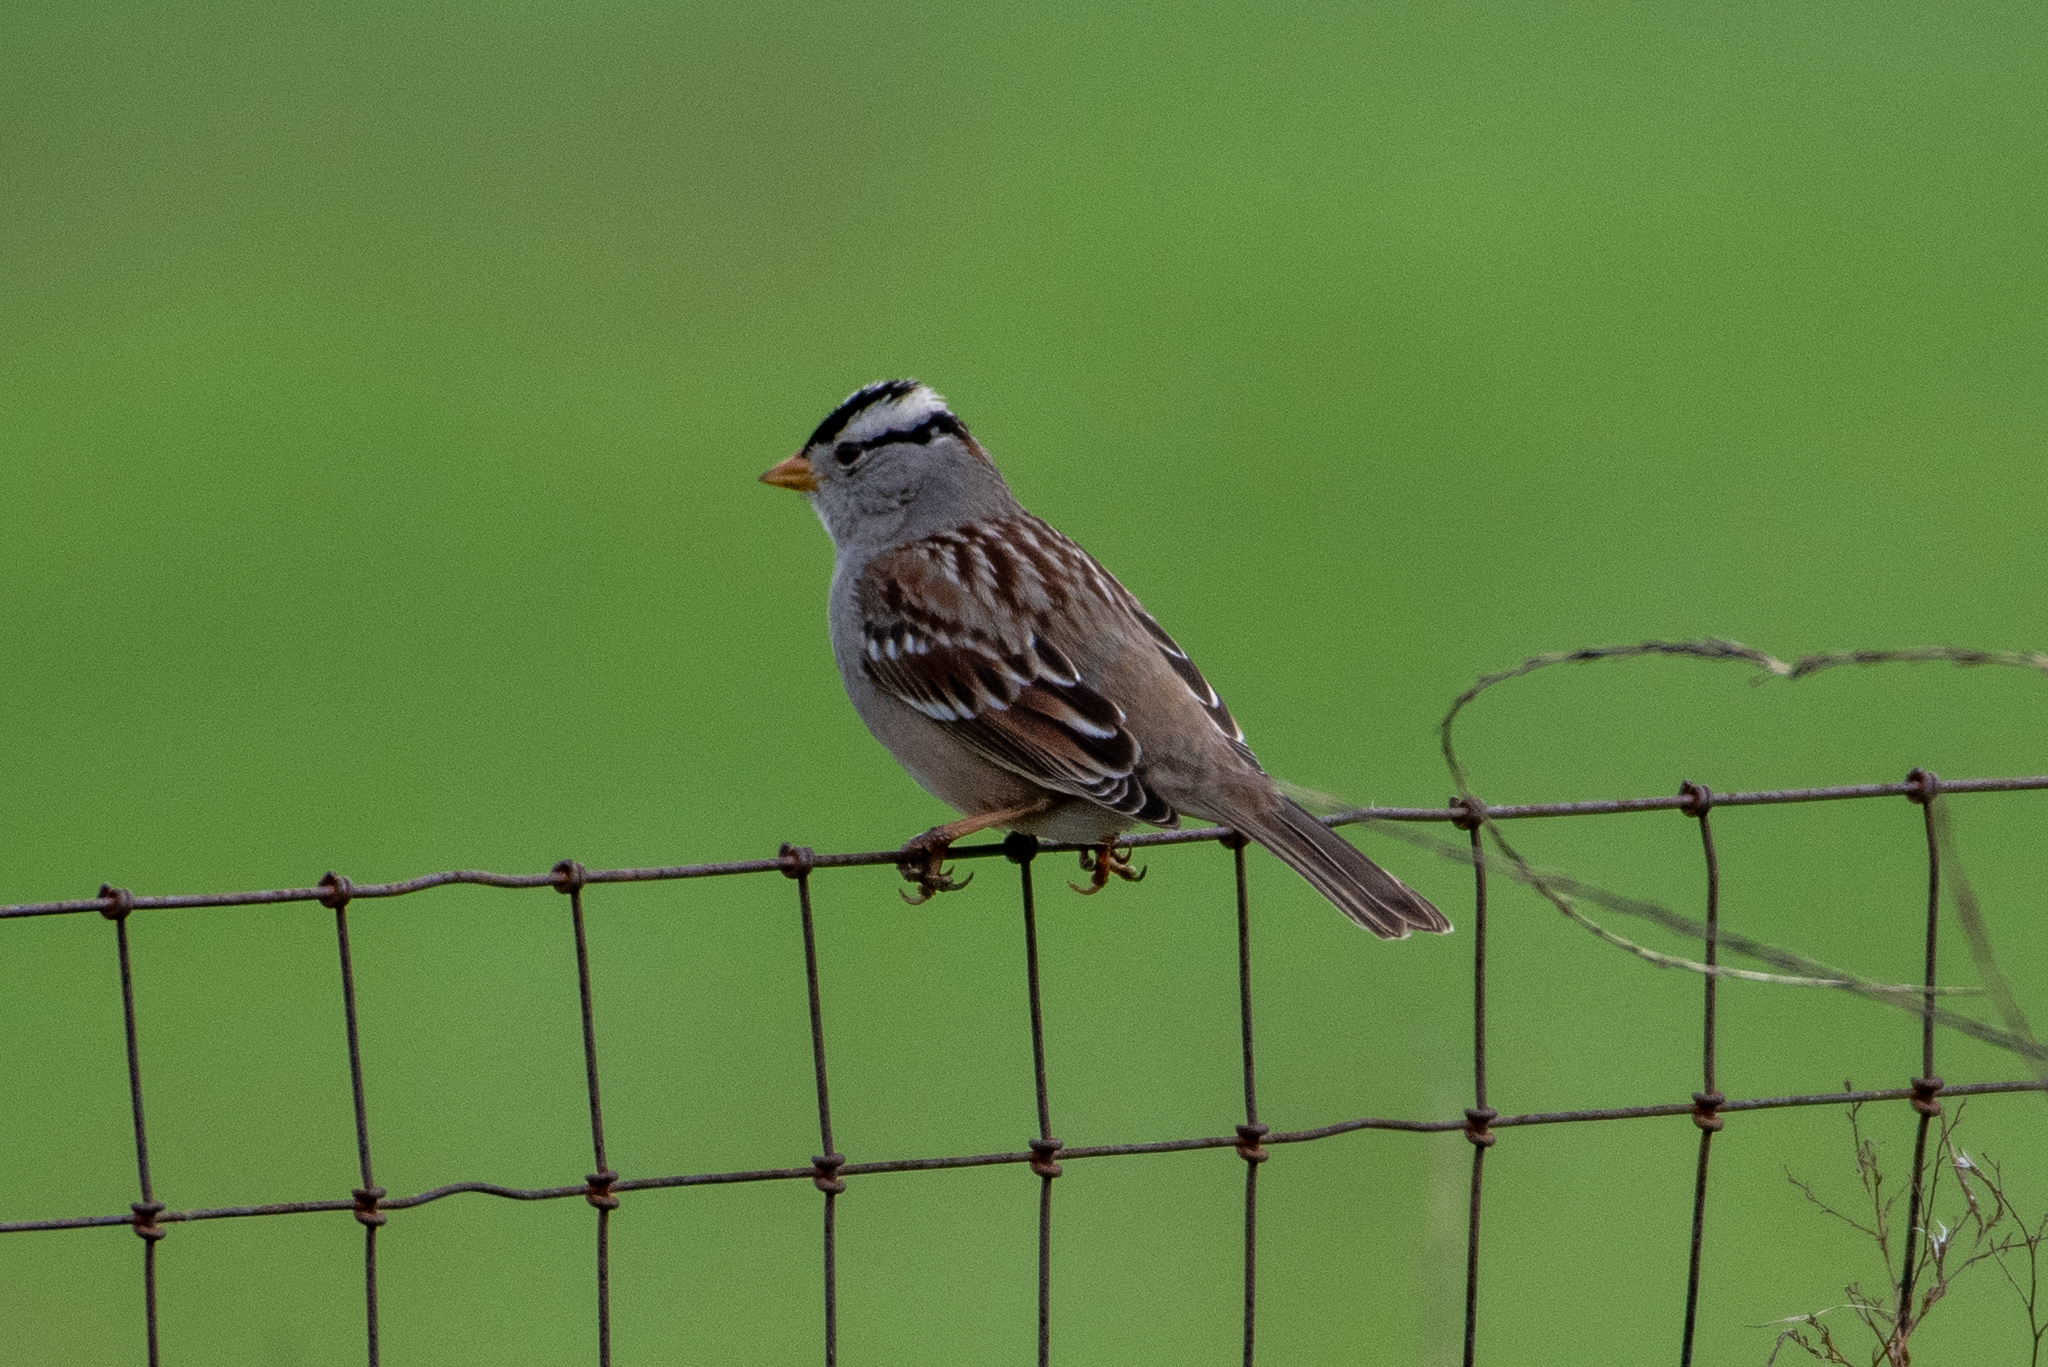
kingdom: Animalia
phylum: Chordata
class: Aves
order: Passeriformes
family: Passerellidae
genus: Zonotrichia
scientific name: Zonotrichia leucophrys
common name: White-crowned sparrow
